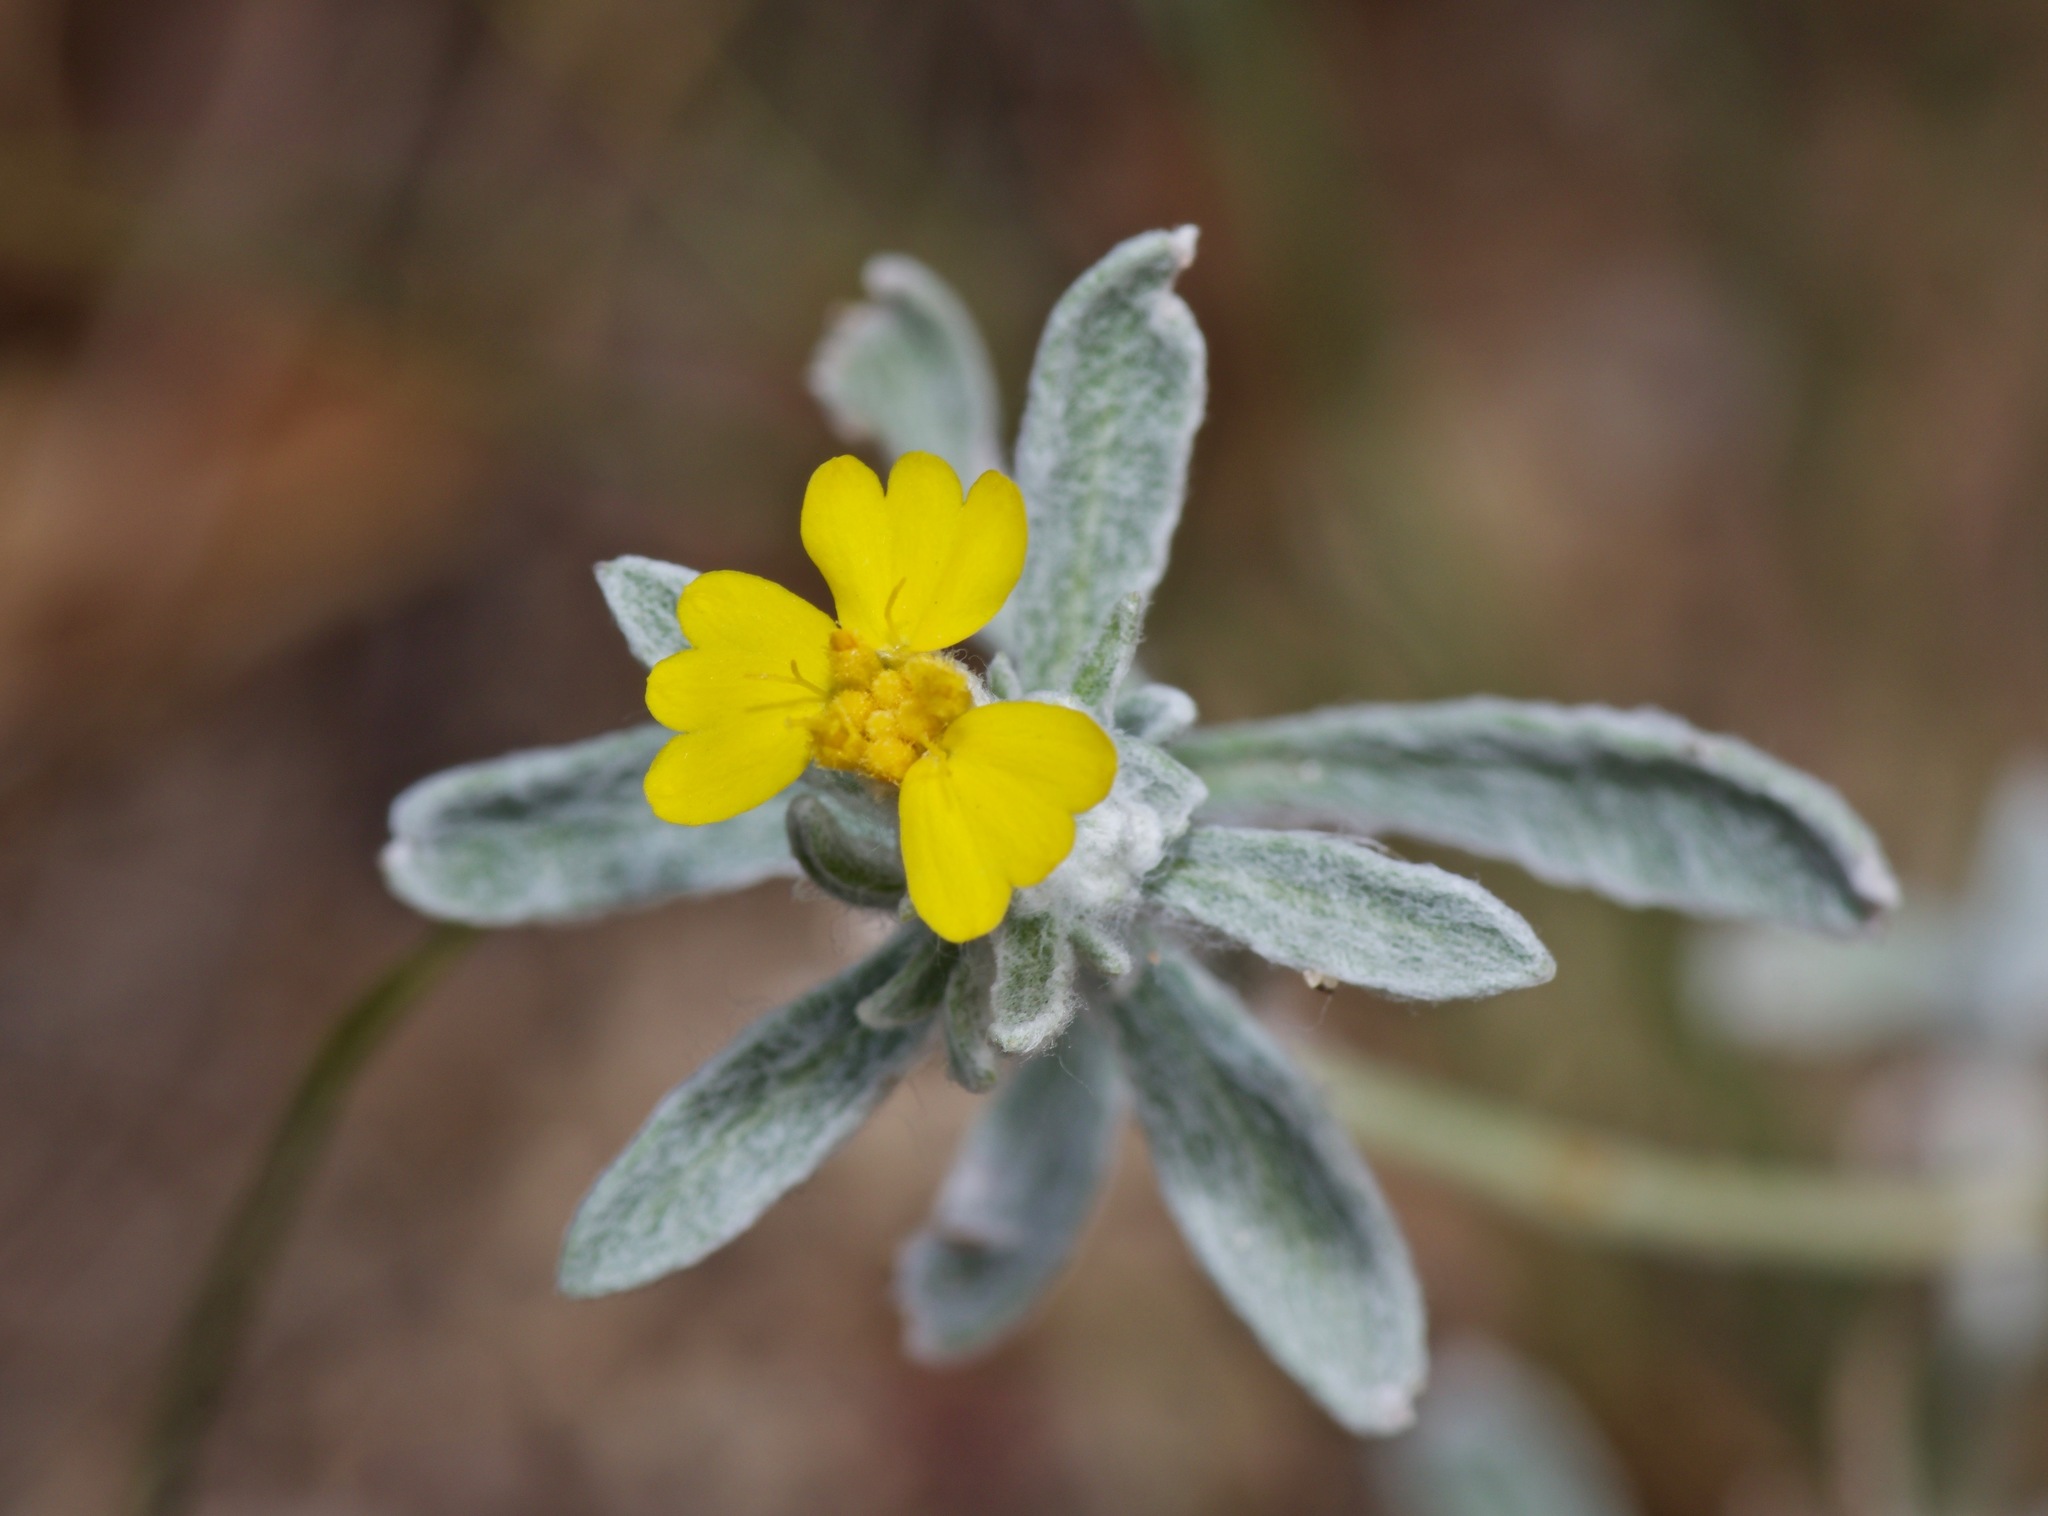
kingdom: Plantae
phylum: Tracheophyta
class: Magnoliopsida
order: Asterales
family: Asteraceae
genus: Psilostrophe
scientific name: Psilostrophe tagetina
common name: Marigold paper-flower
